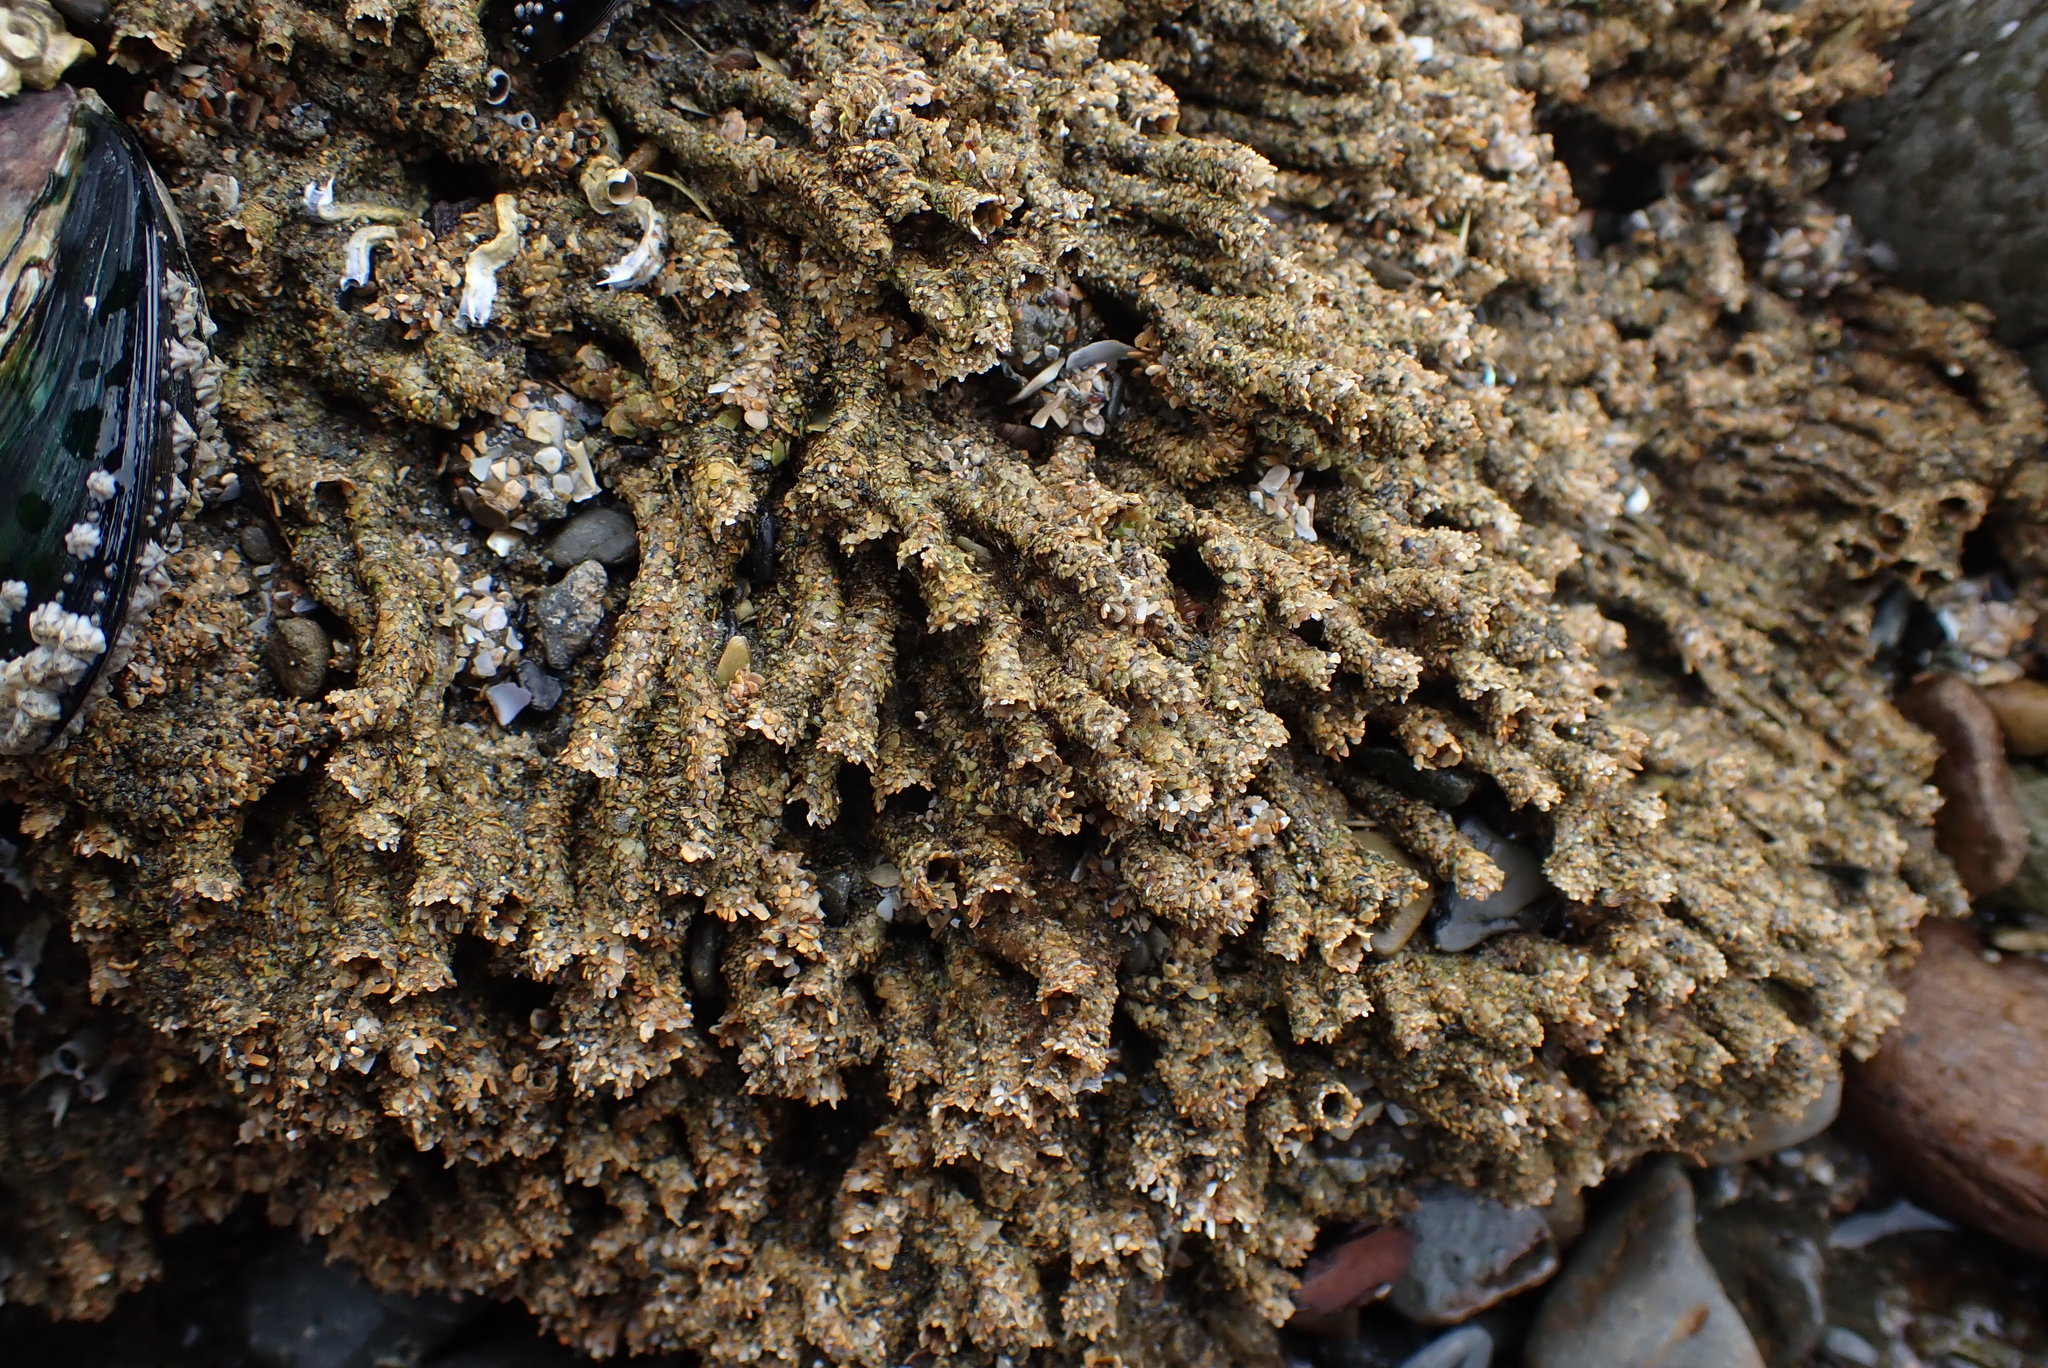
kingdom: Animalia
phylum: Annelida
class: Polychaeta
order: Sabellida
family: Sabellariidae
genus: Neosabellaria
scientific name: Neosabellaria kaiparaensis
